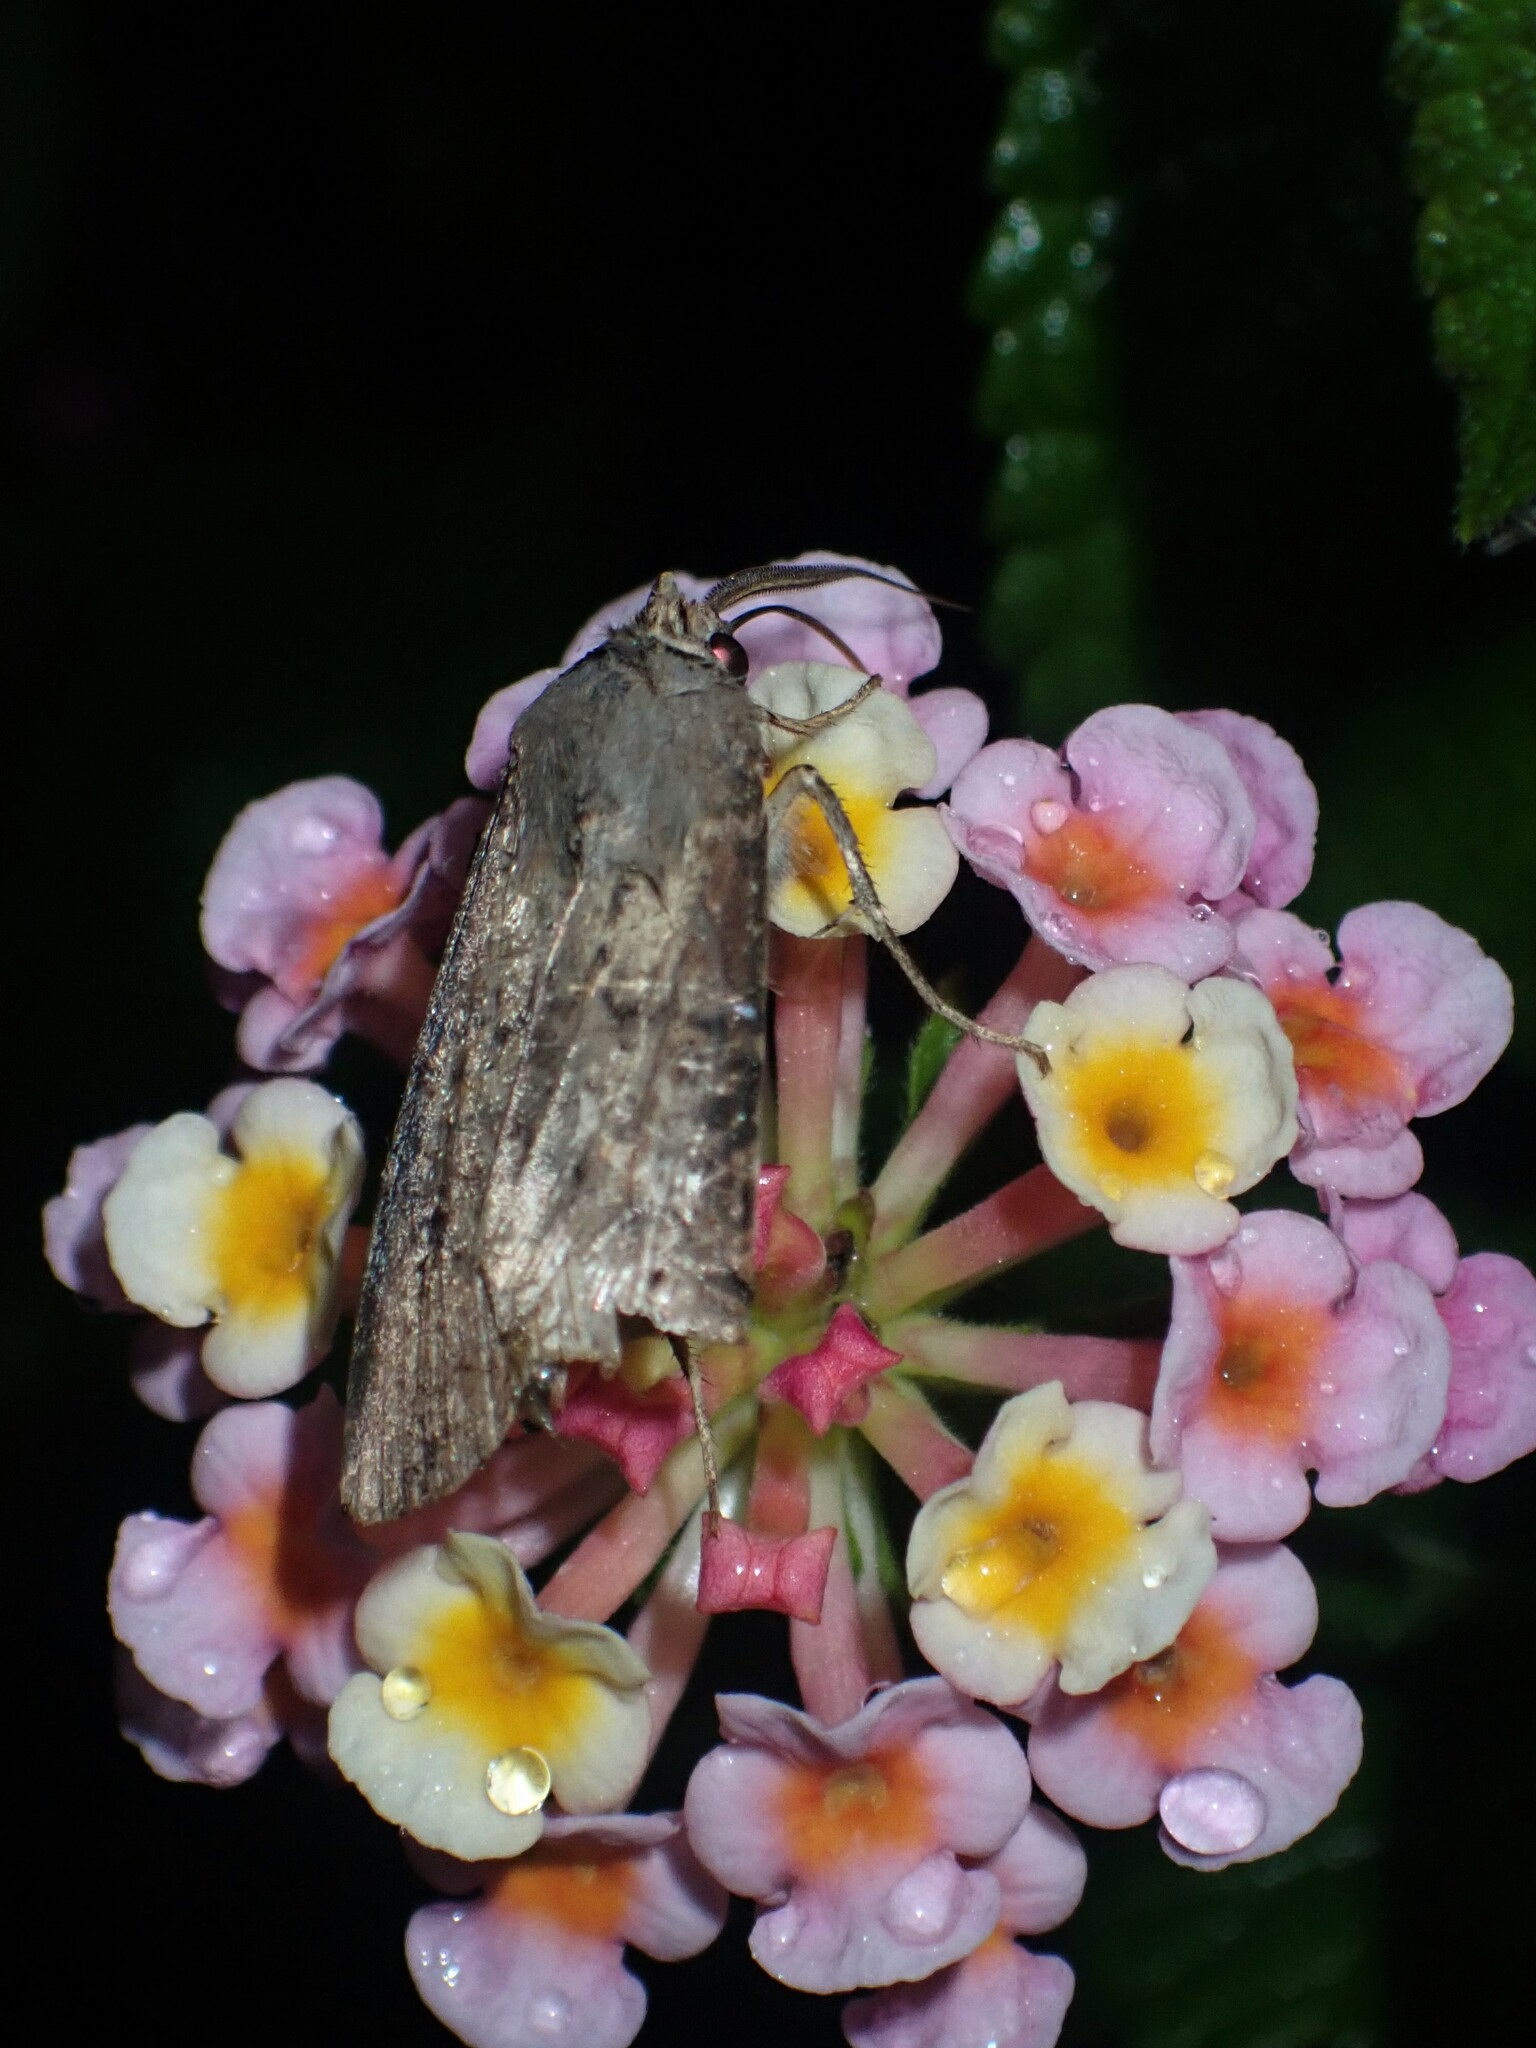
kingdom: Animalia
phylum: Arthropoda
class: Insecta
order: Lepidoptera
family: Noctuidae
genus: Agrotis
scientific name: Agrotis ipsilon
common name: Dark sword-grass
